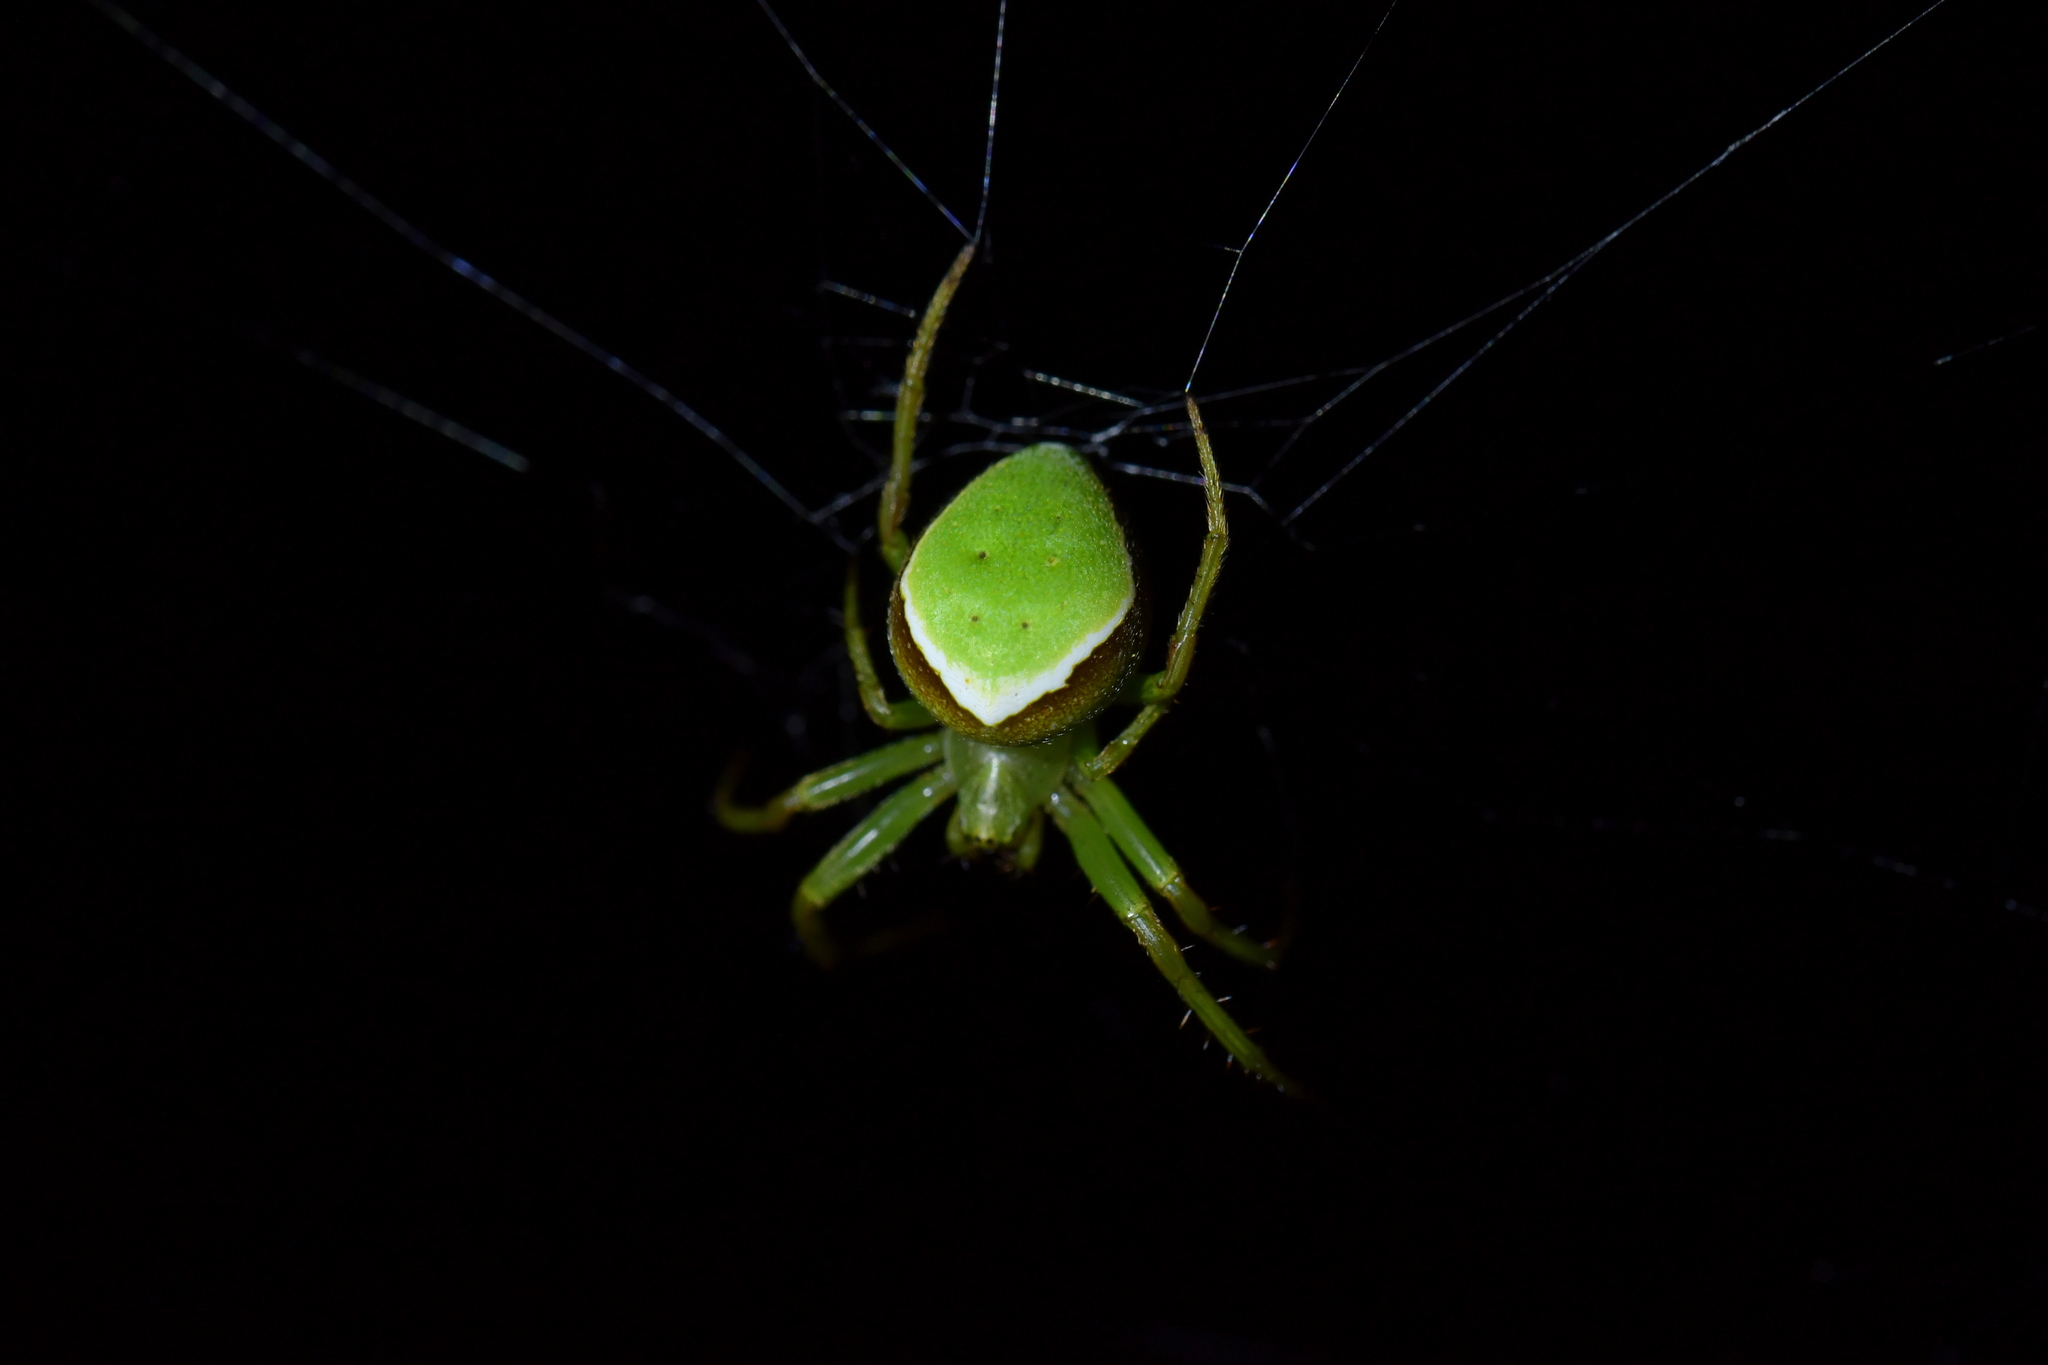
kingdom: Animalia
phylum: Arthropoda
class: Arachnida
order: Araneae
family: Araneidae
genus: Colaranea
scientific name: Colaranea viriditas
